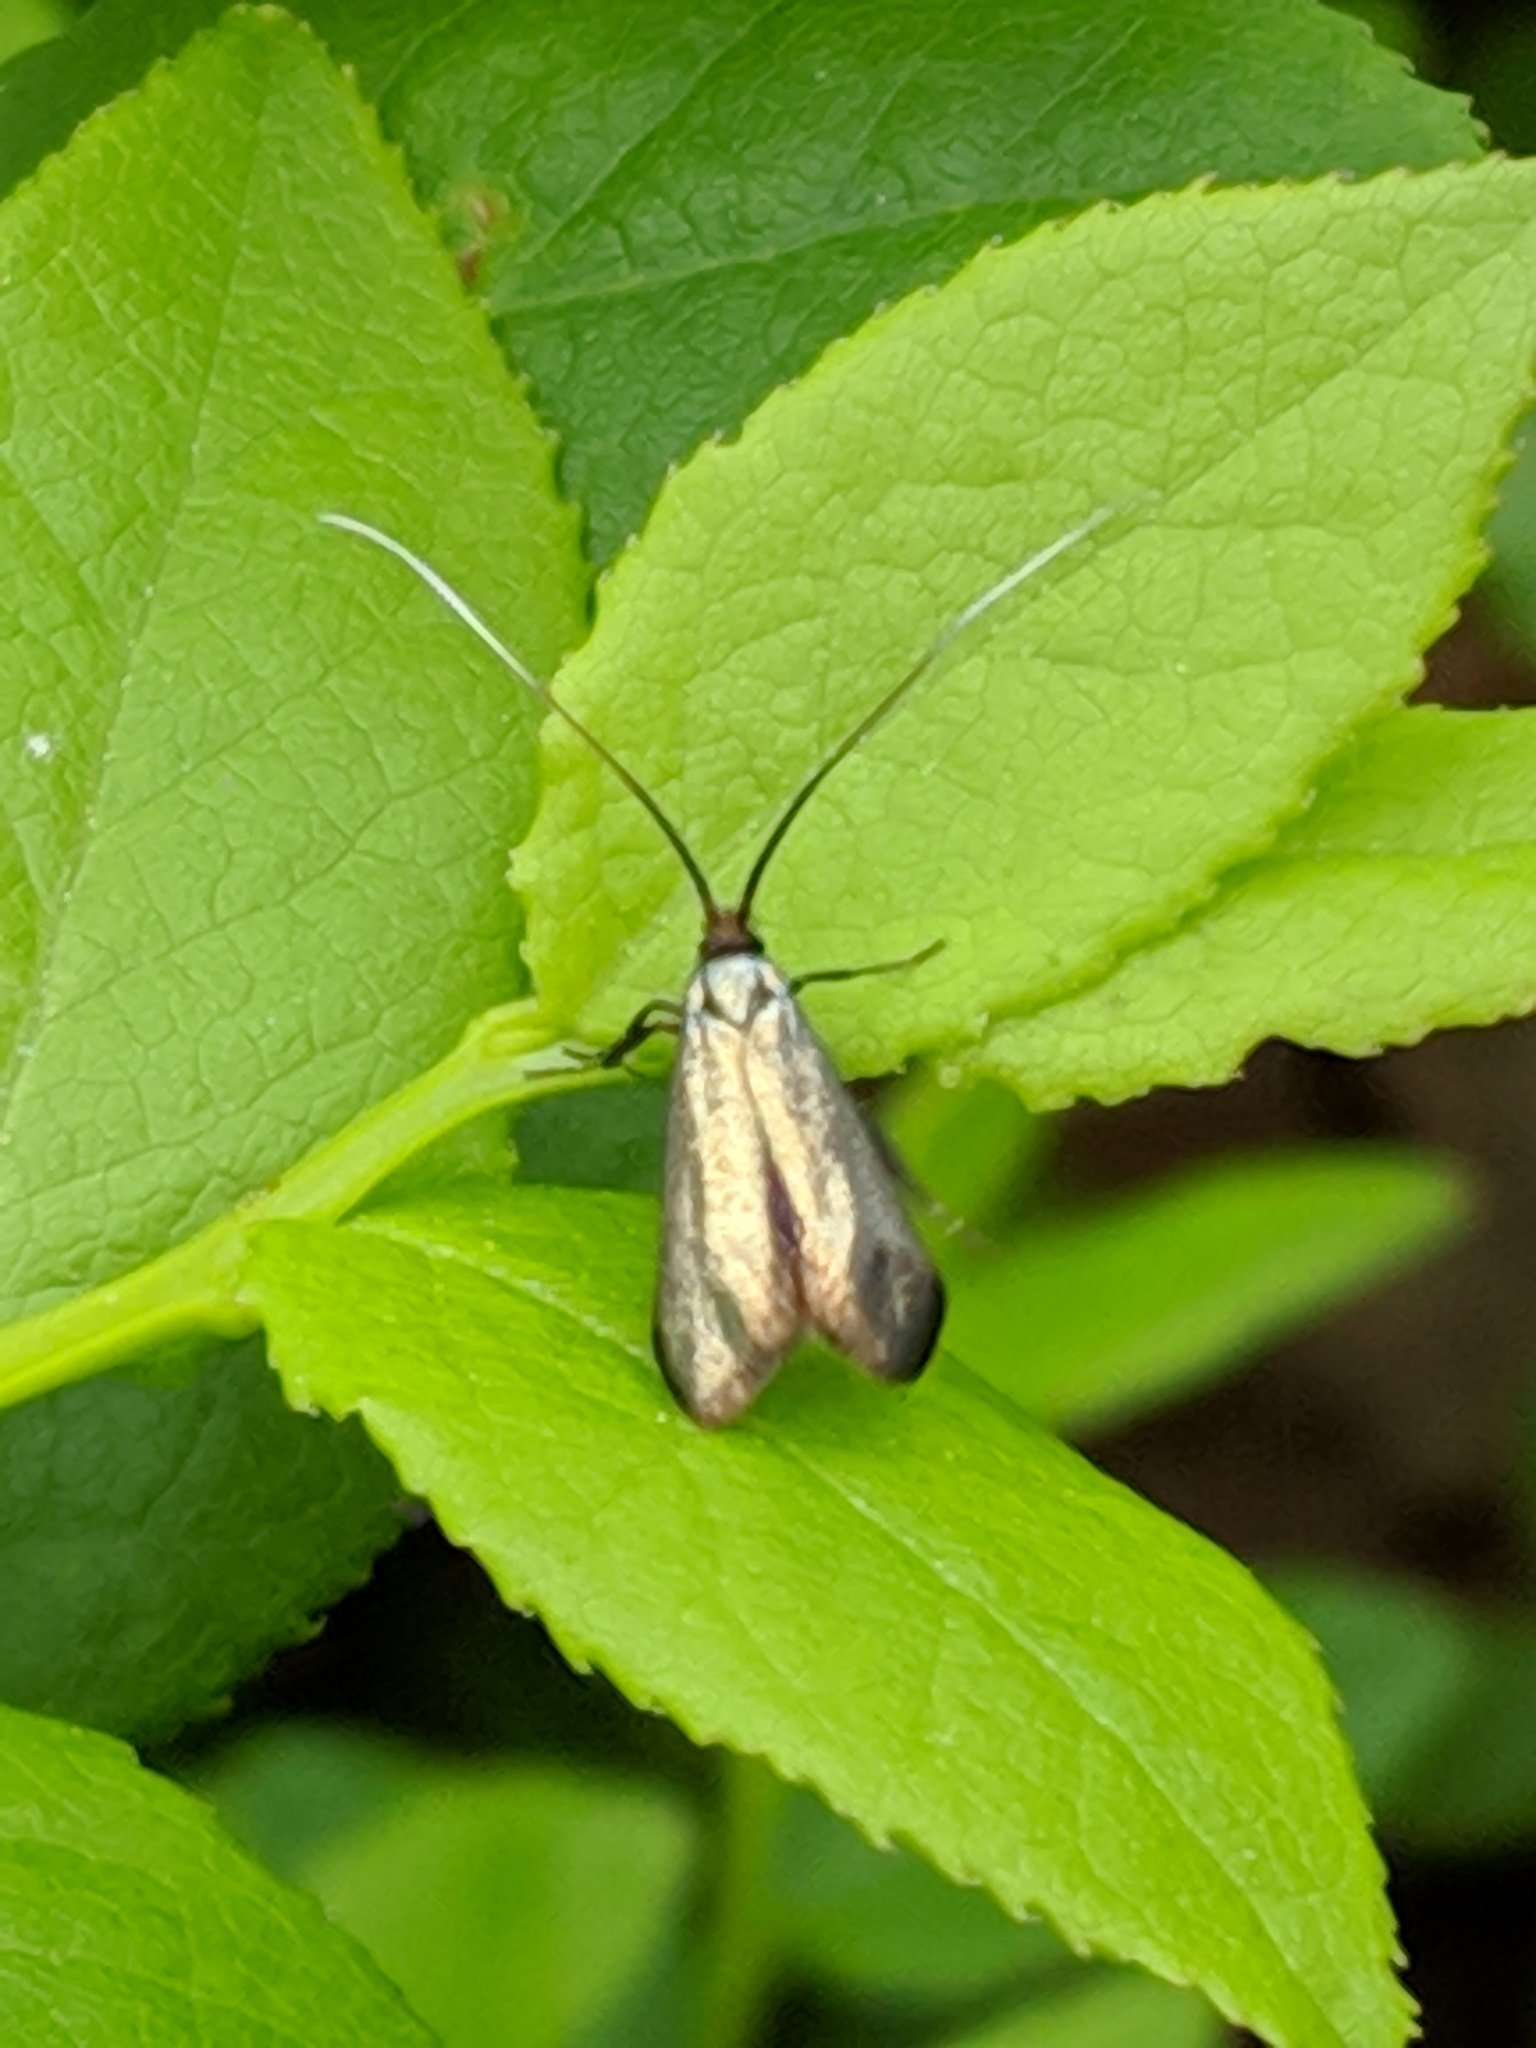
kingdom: Animalia
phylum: Arthropoda
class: Insecta
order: Lepidoptera
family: Adelidae
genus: Adela
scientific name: Adela viridella
